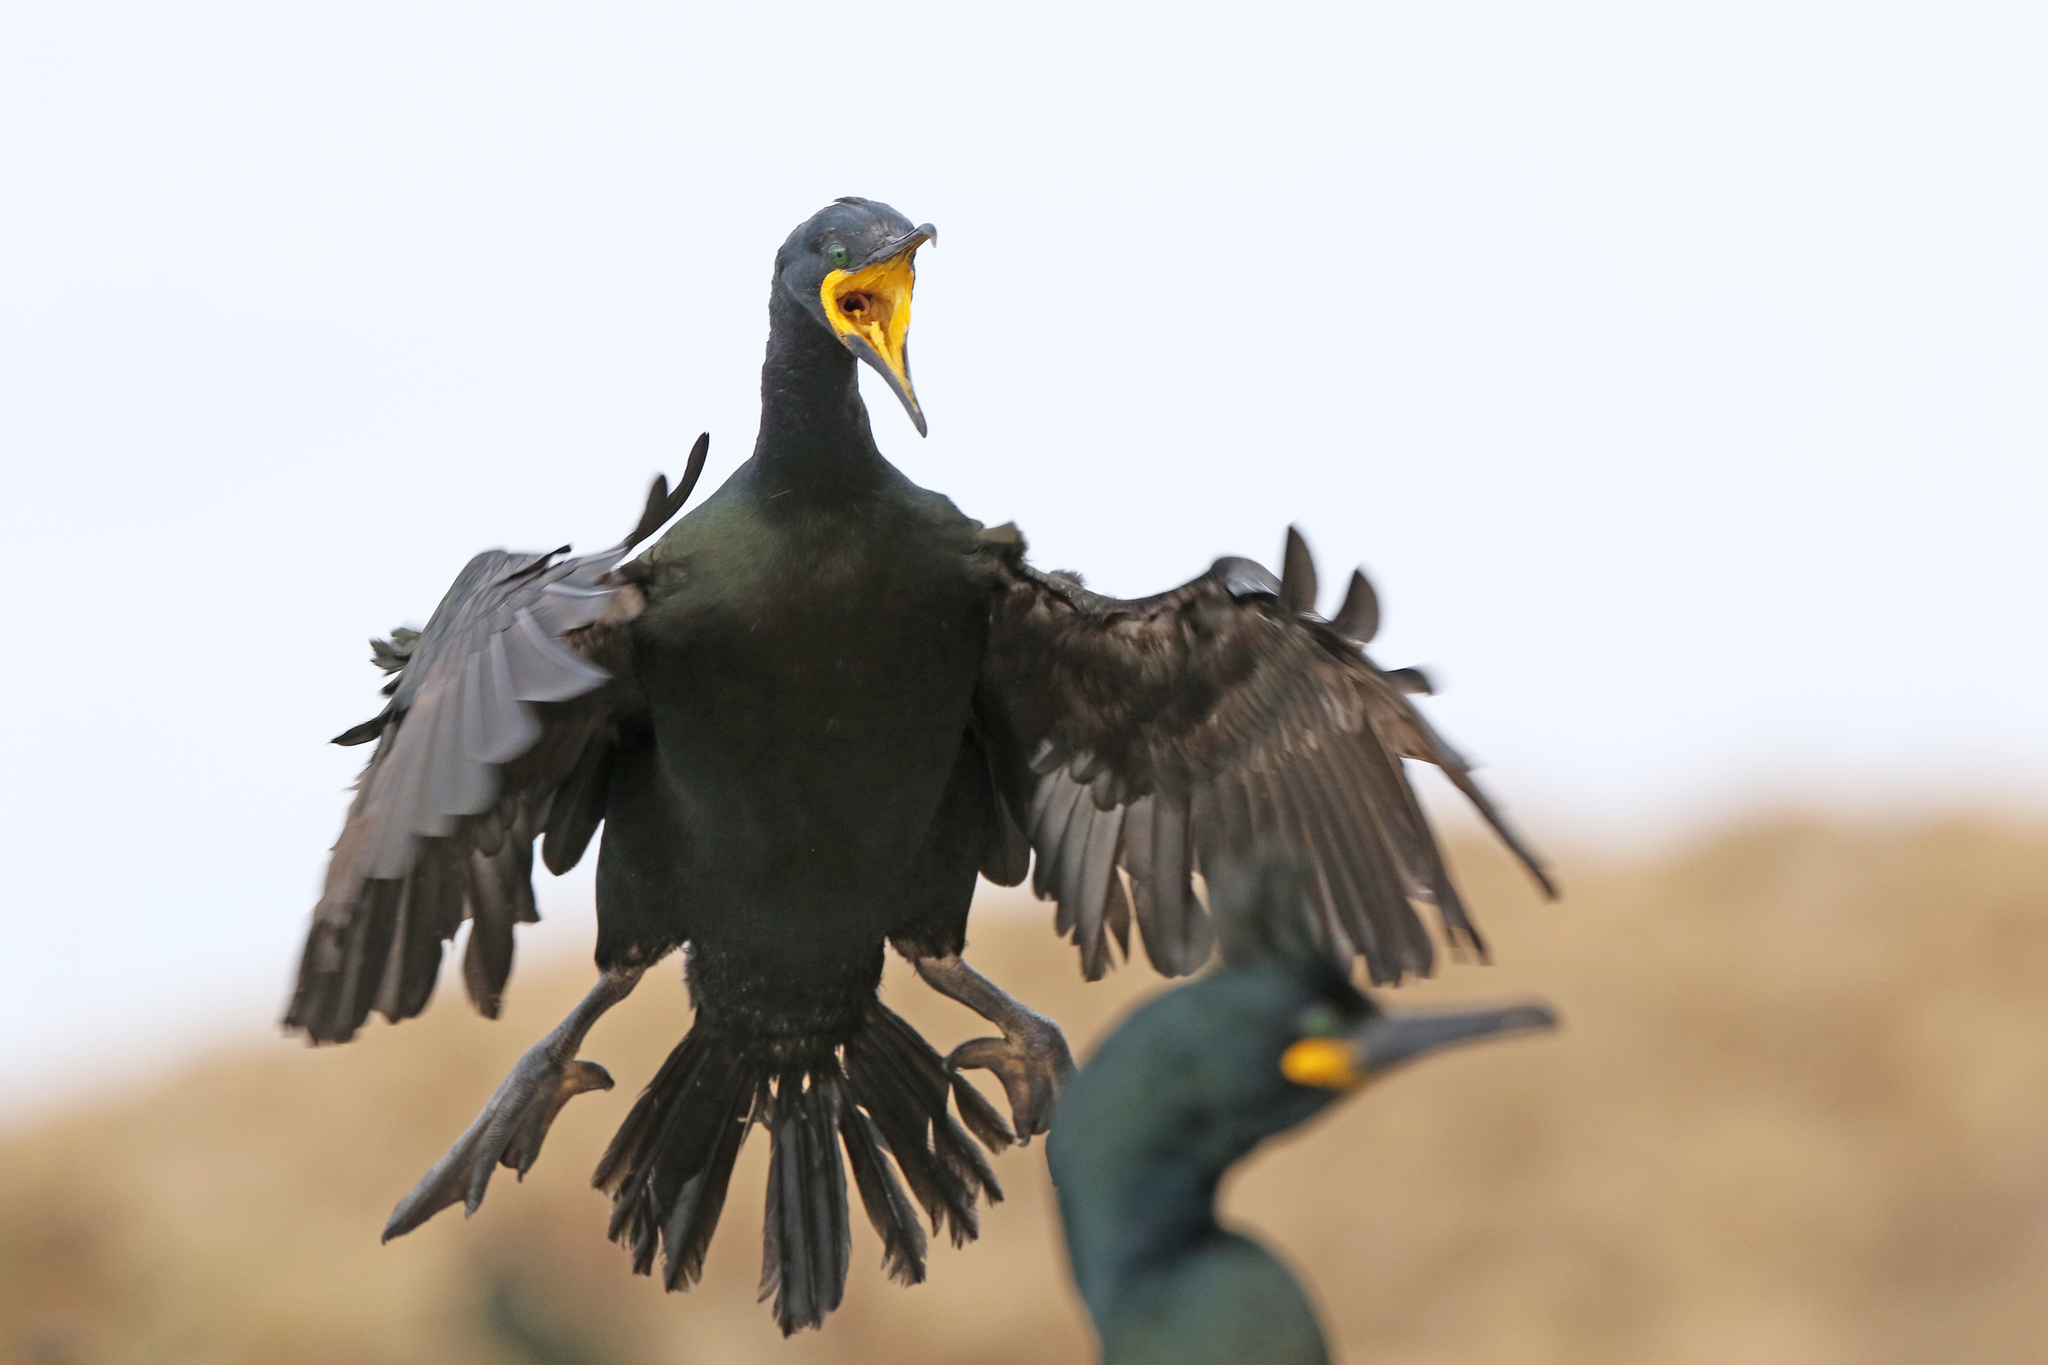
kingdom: Animalia
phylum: Chordata
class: Aves
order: Suliformes
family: Phalacrocoracidae
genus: Phalacrocorax
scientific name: Phalacrocorax aristotelis
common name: European shag
